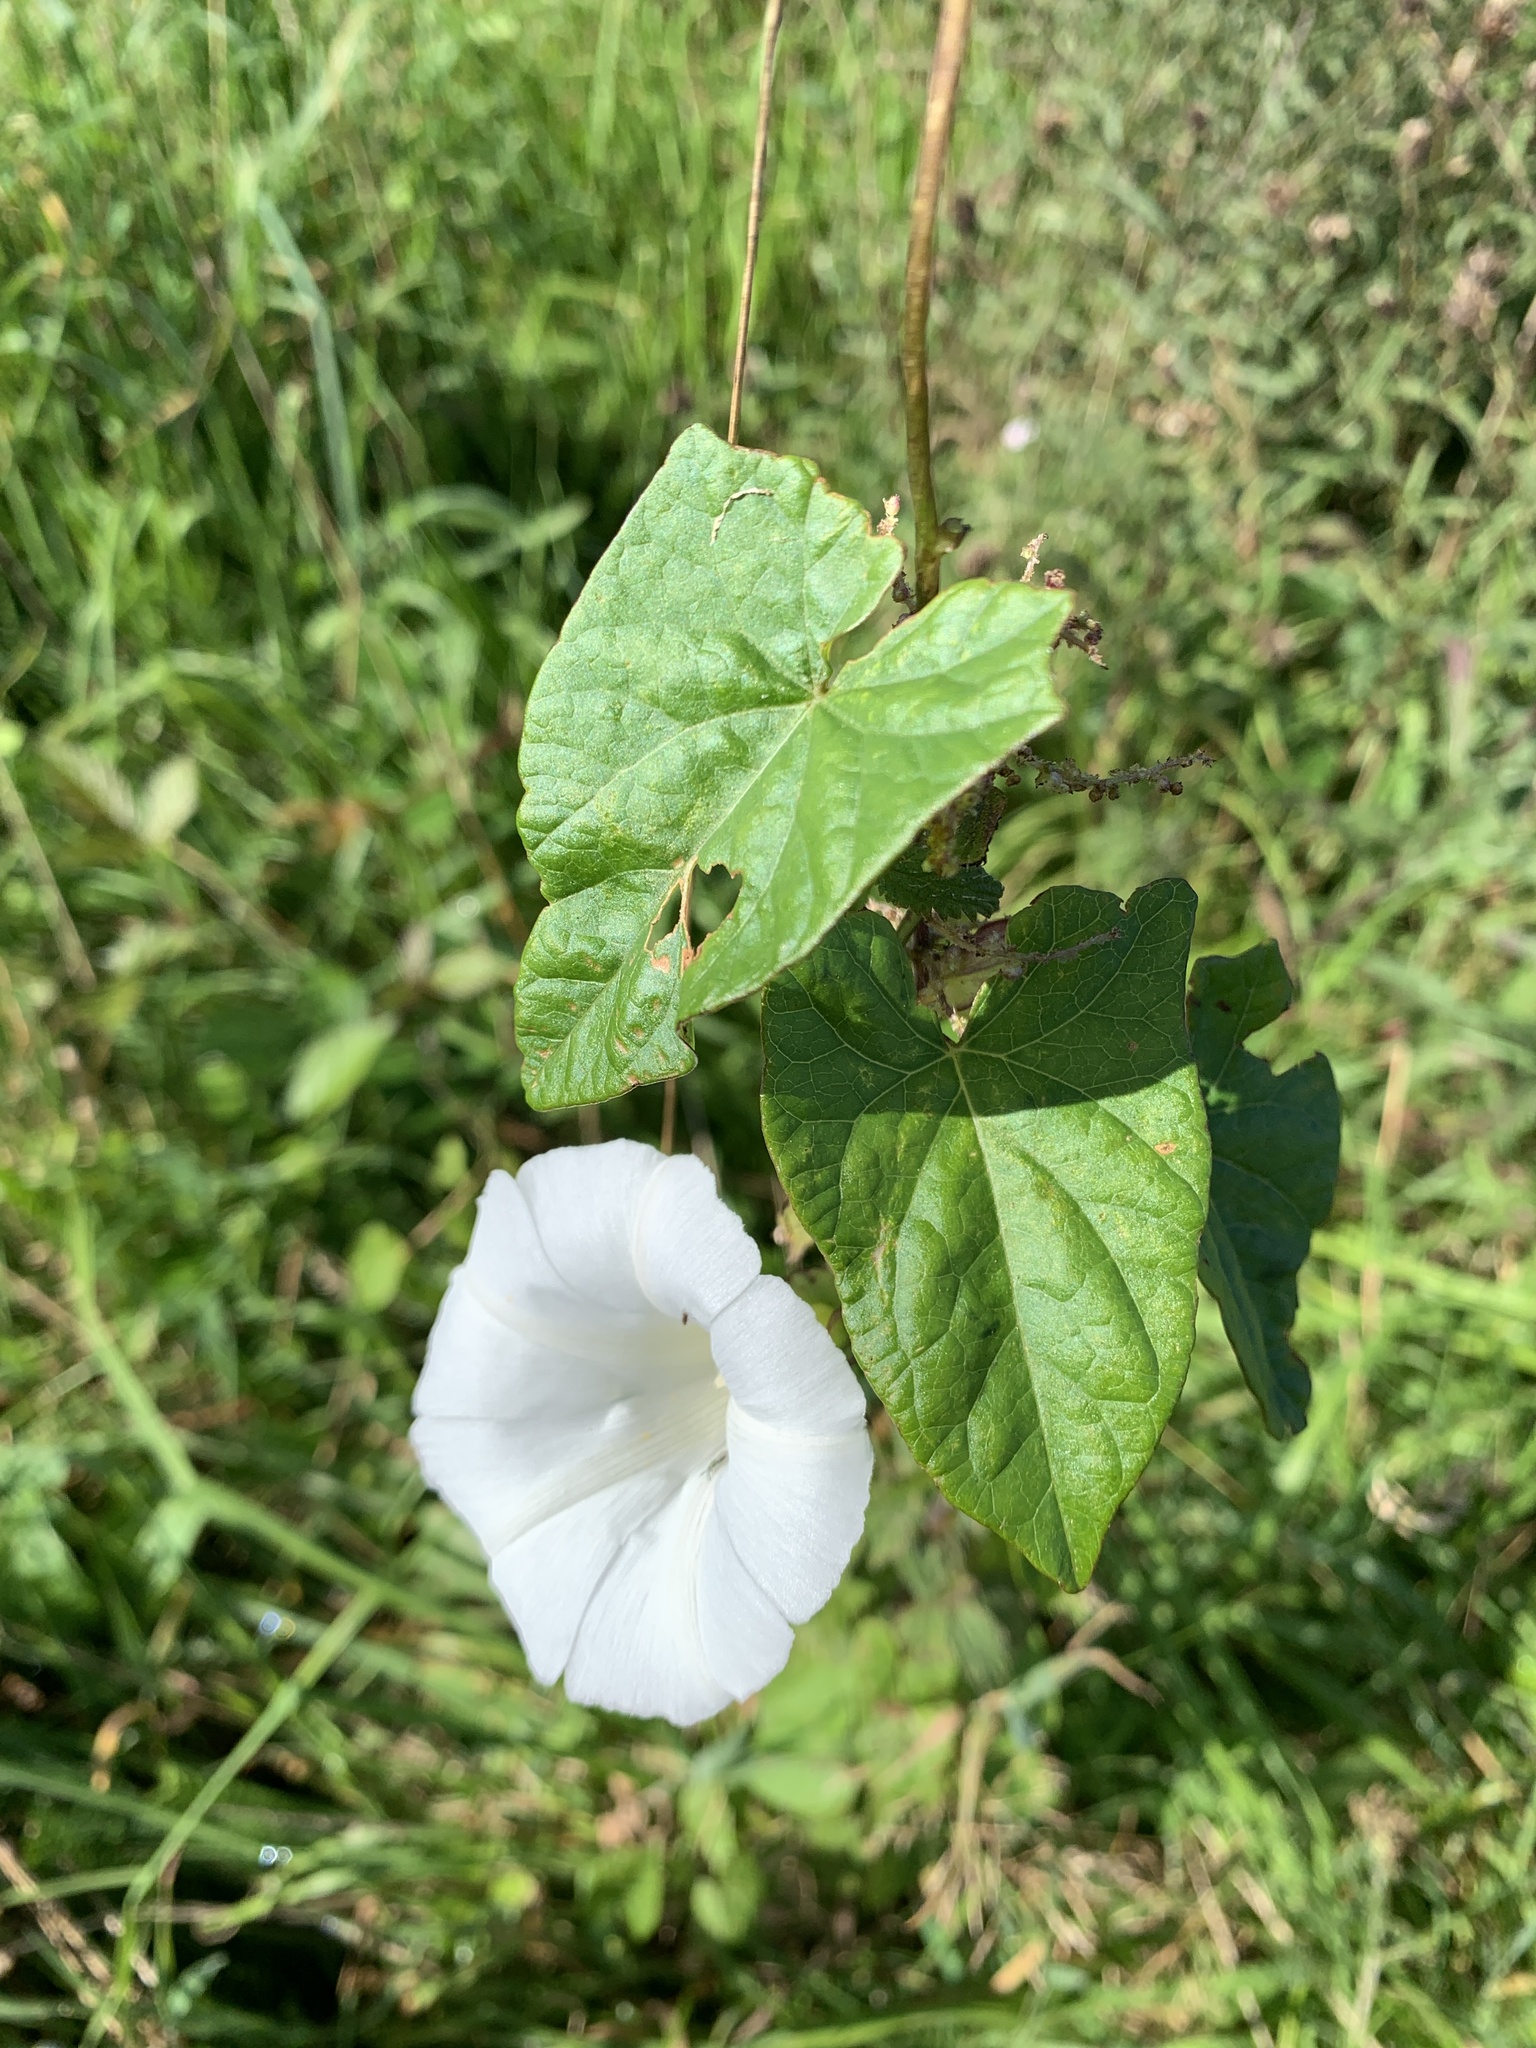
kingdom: Plantae
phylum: Tracheophyta
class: Magnoliopsida
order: Solanales
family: Convolvulaceae
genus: Calystegia
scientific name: Calystegia sepium
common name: Hedge bindweed
